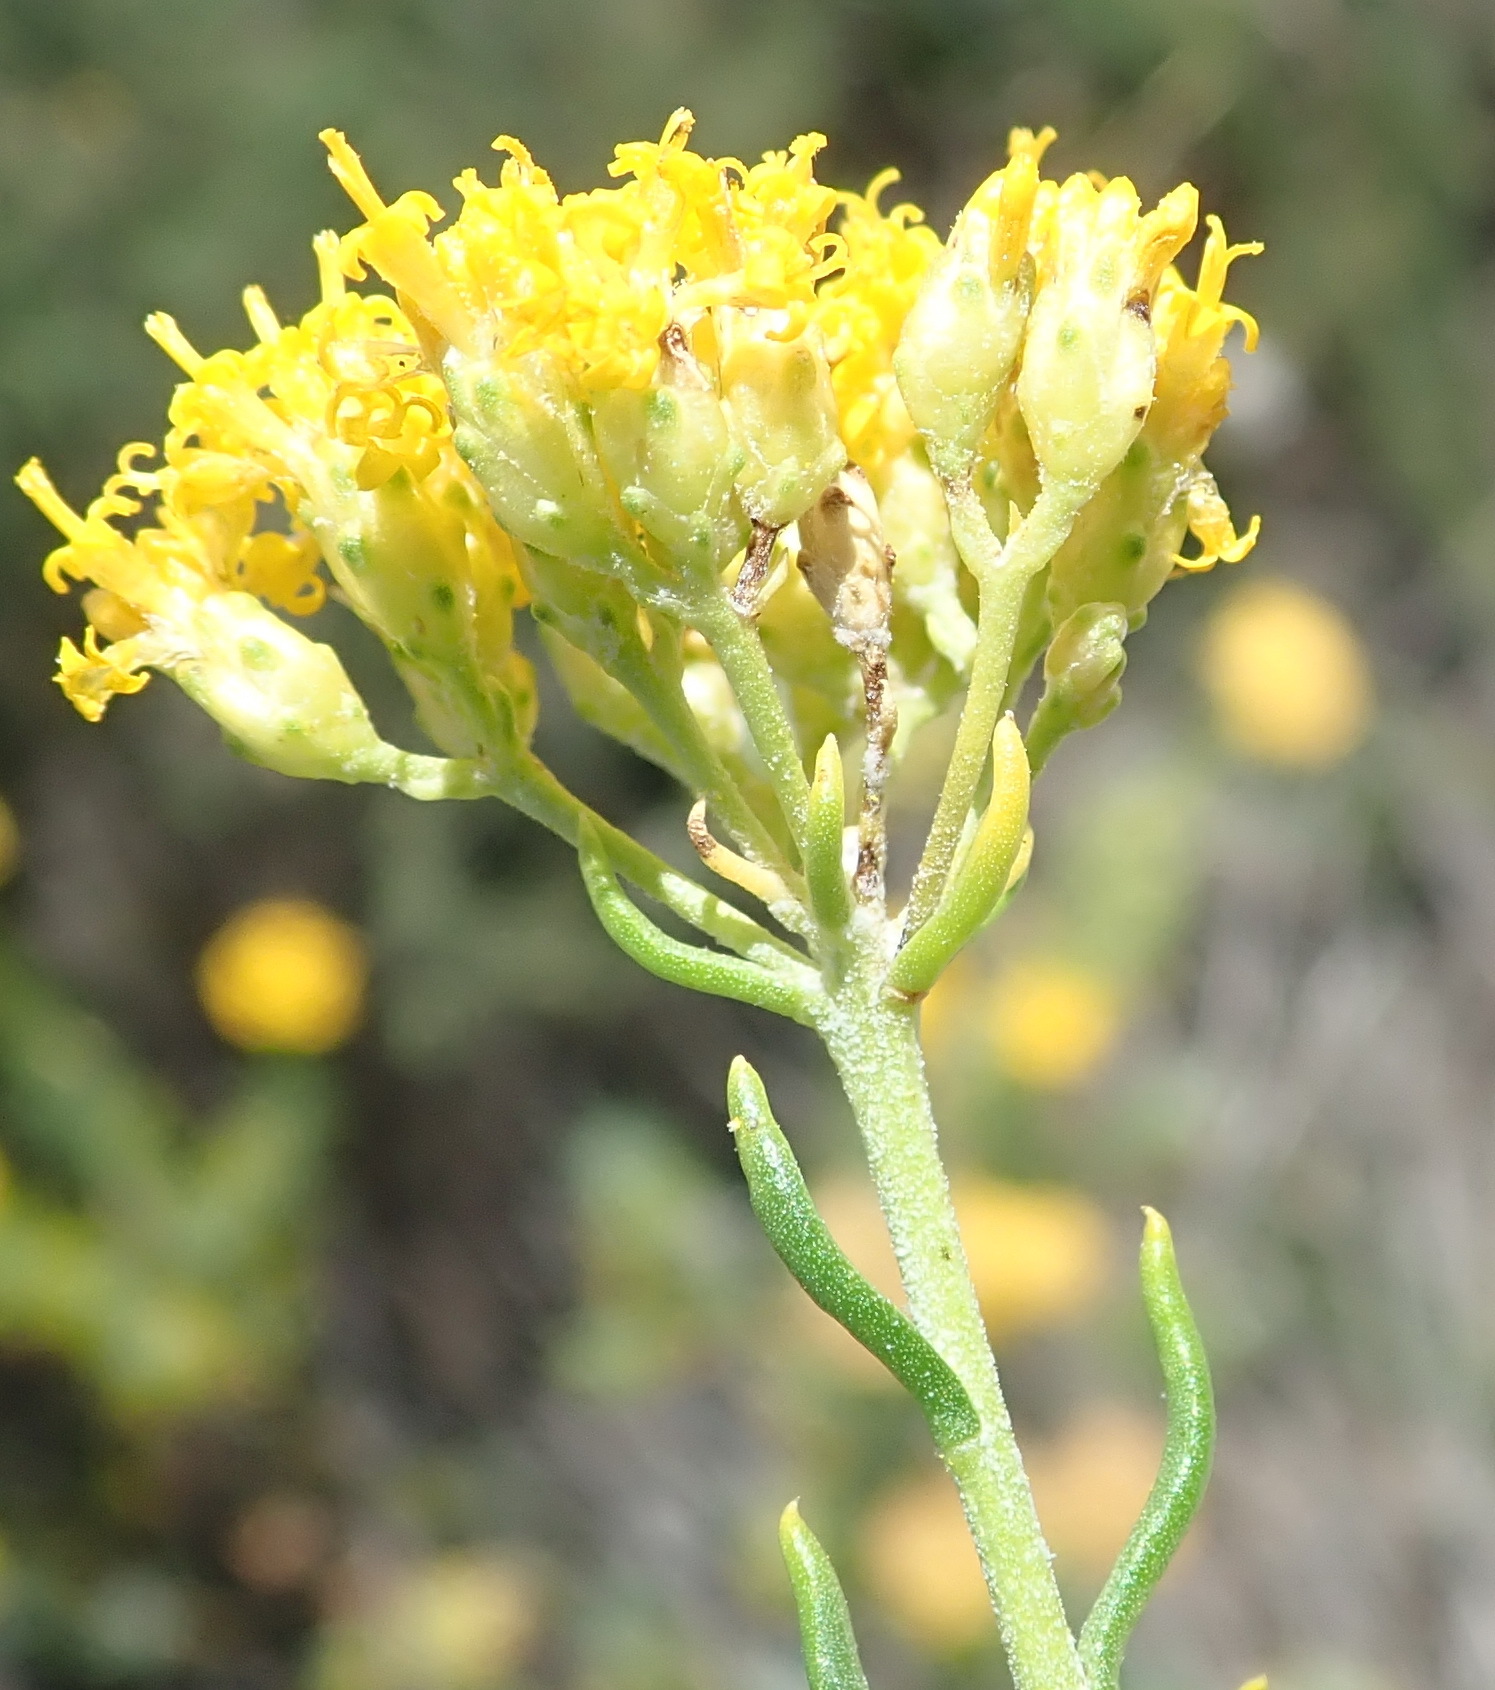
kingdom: Plantae
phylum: Tracheophyta
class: Magnoliopsida
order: Asterales
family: Asteraceae
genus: Athanasia
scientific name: Athanasia filiformis
